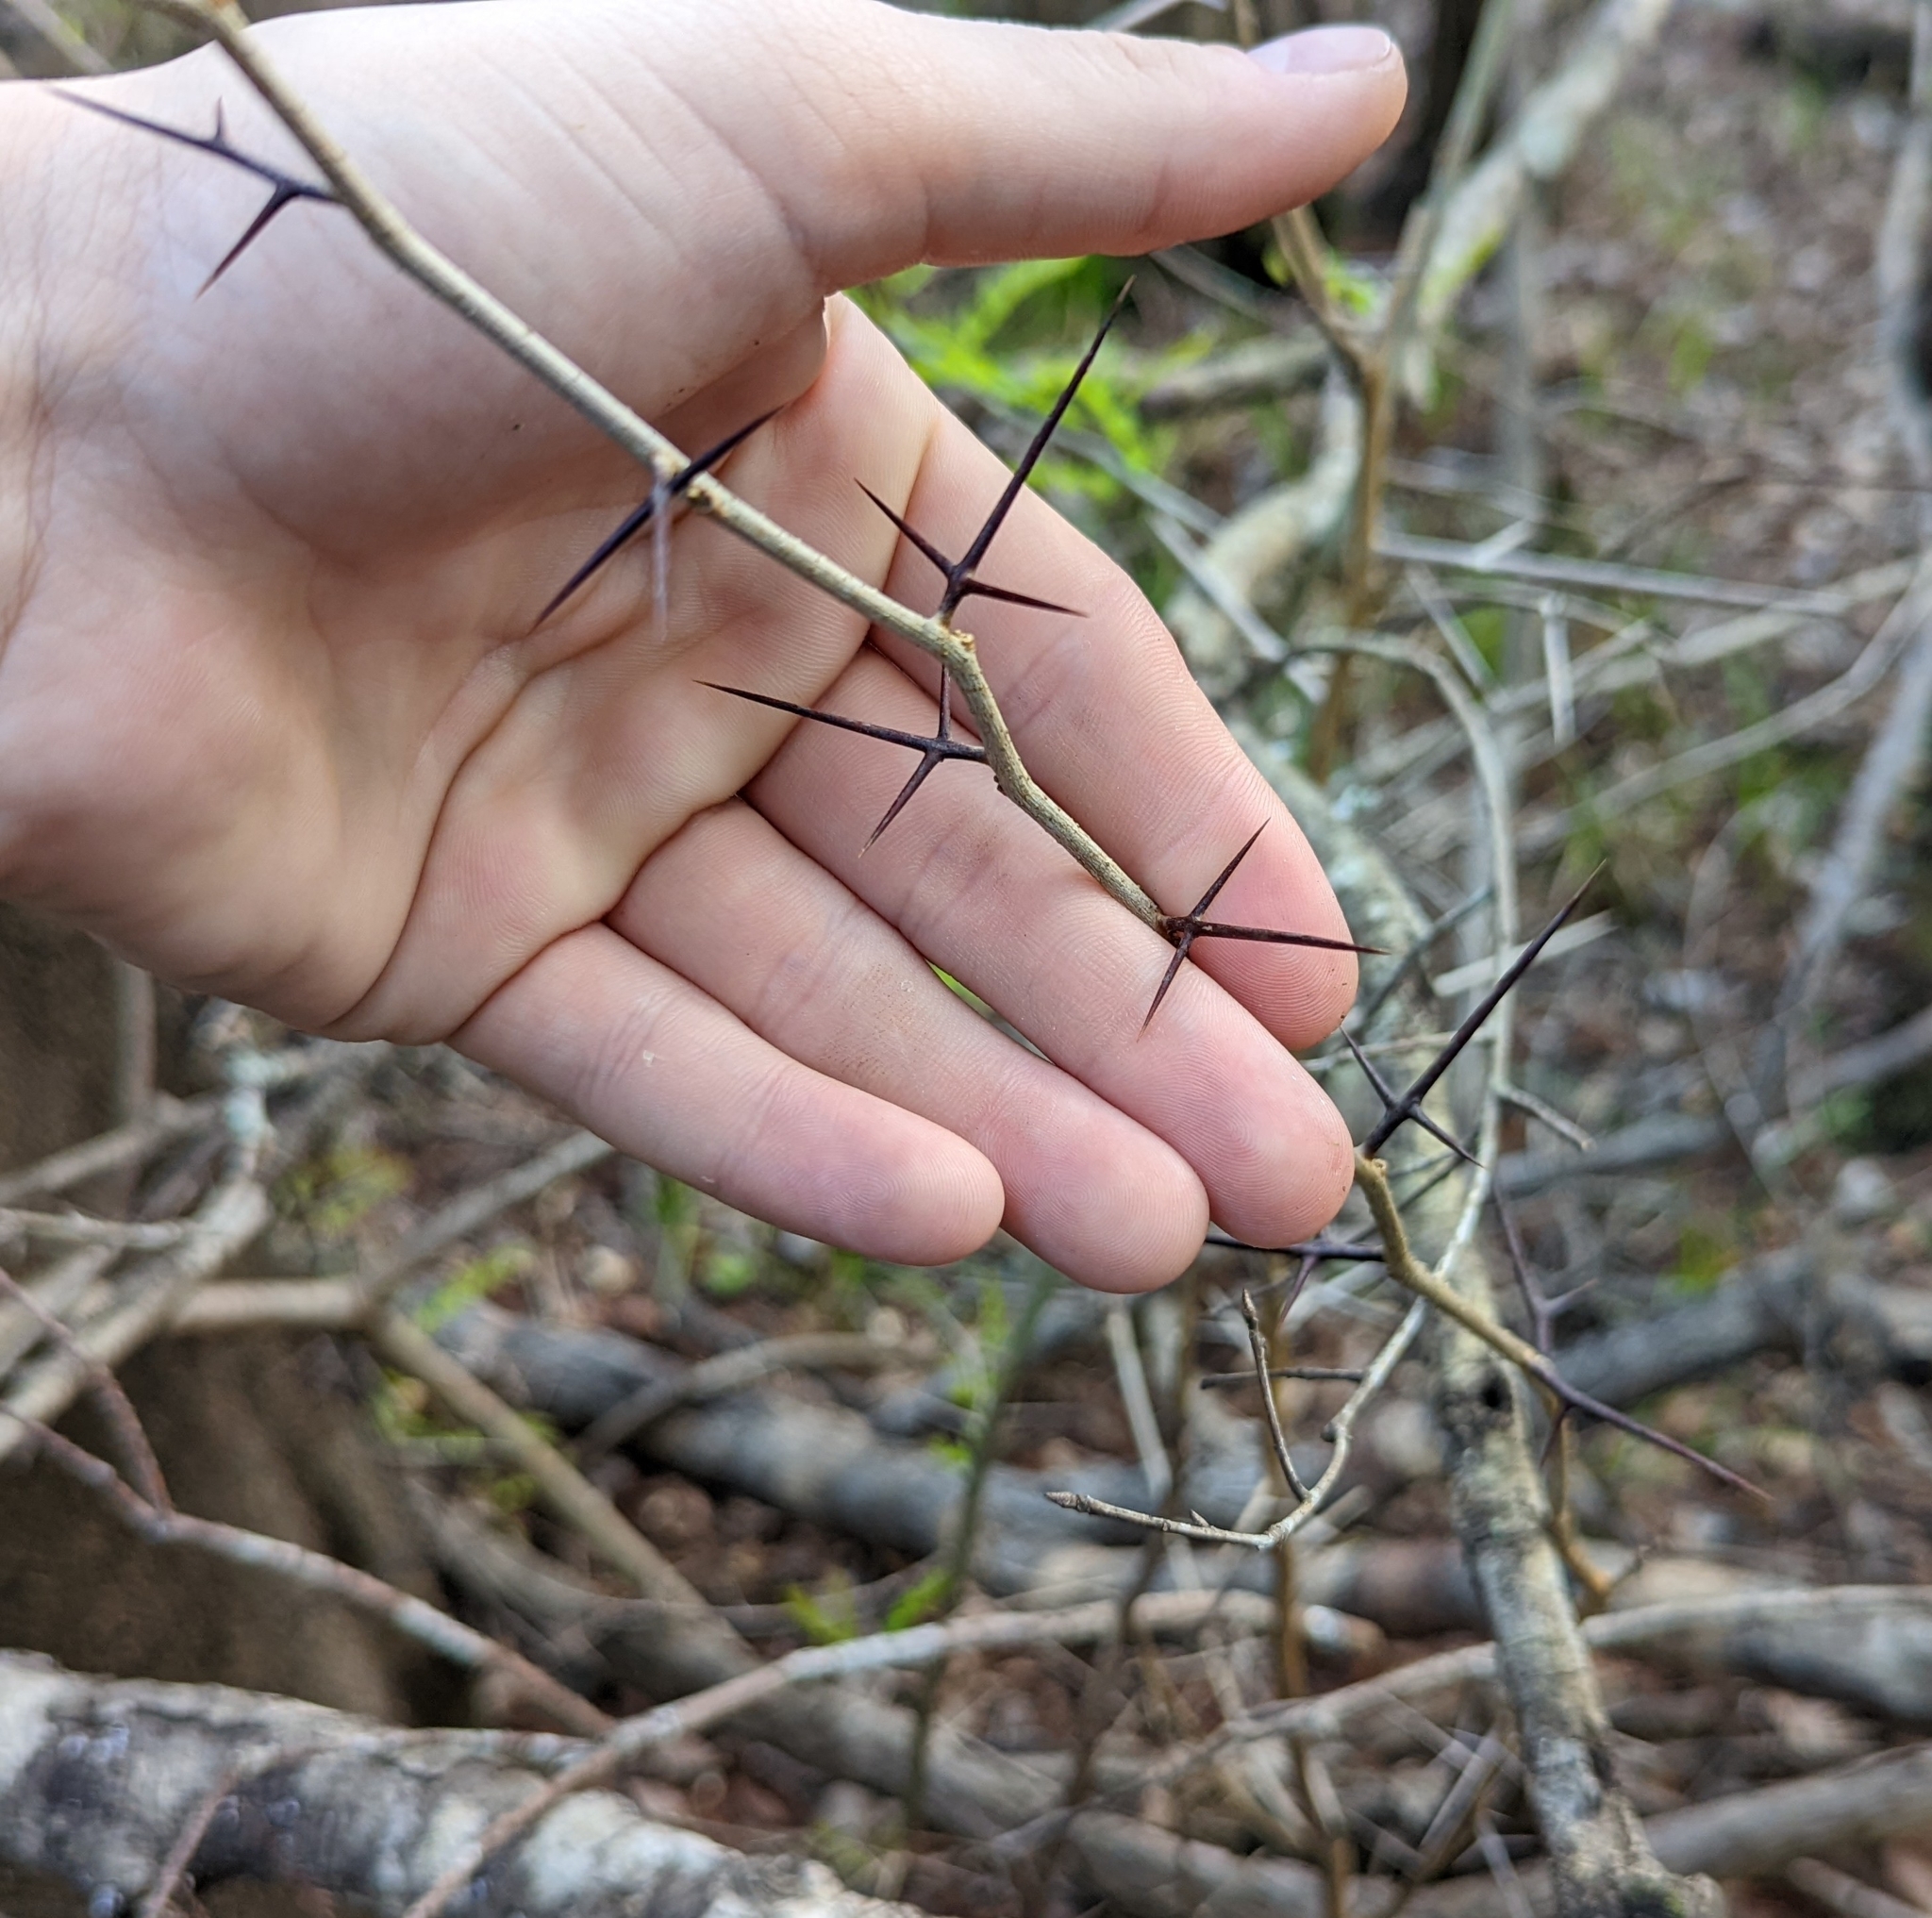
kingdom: Plantae
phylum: Tracheophyta
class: Magnoliopsida
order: Fabales
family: Fabaceae
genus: Gleditsia
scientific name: Gleditsia aquatica
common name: Swamp-locust
